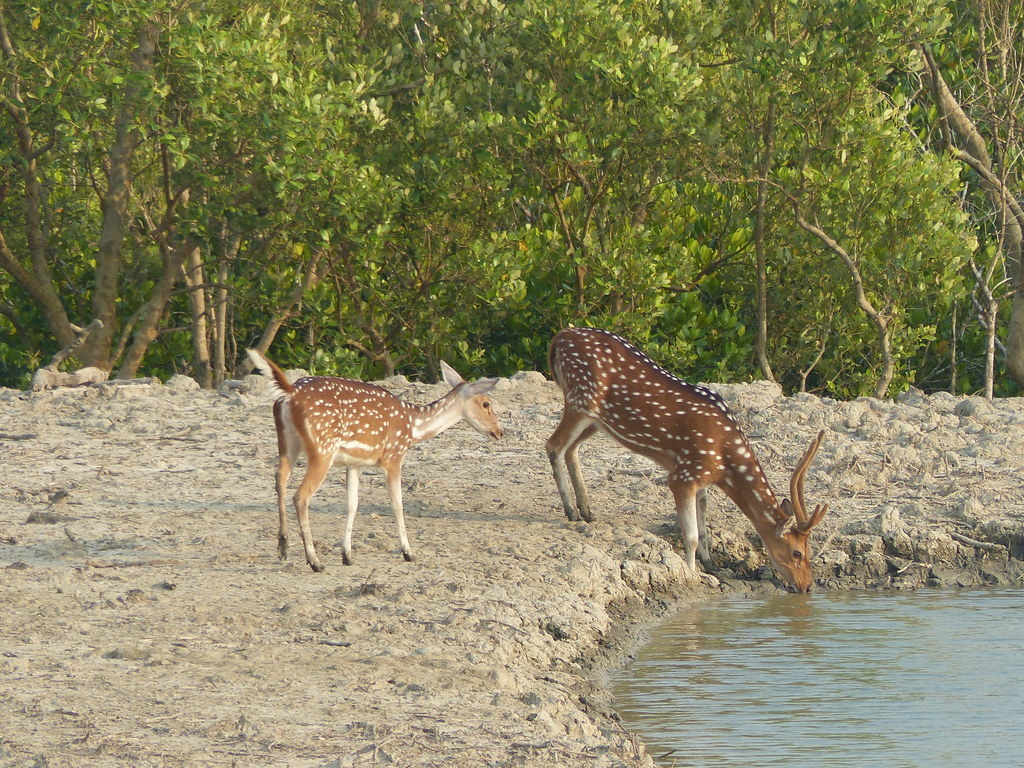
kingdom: Animalia
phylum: Chordata
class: Mammalia
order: Artiodactyla
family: Cervidae
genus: Axis
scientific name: Axis axis
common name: Chital
